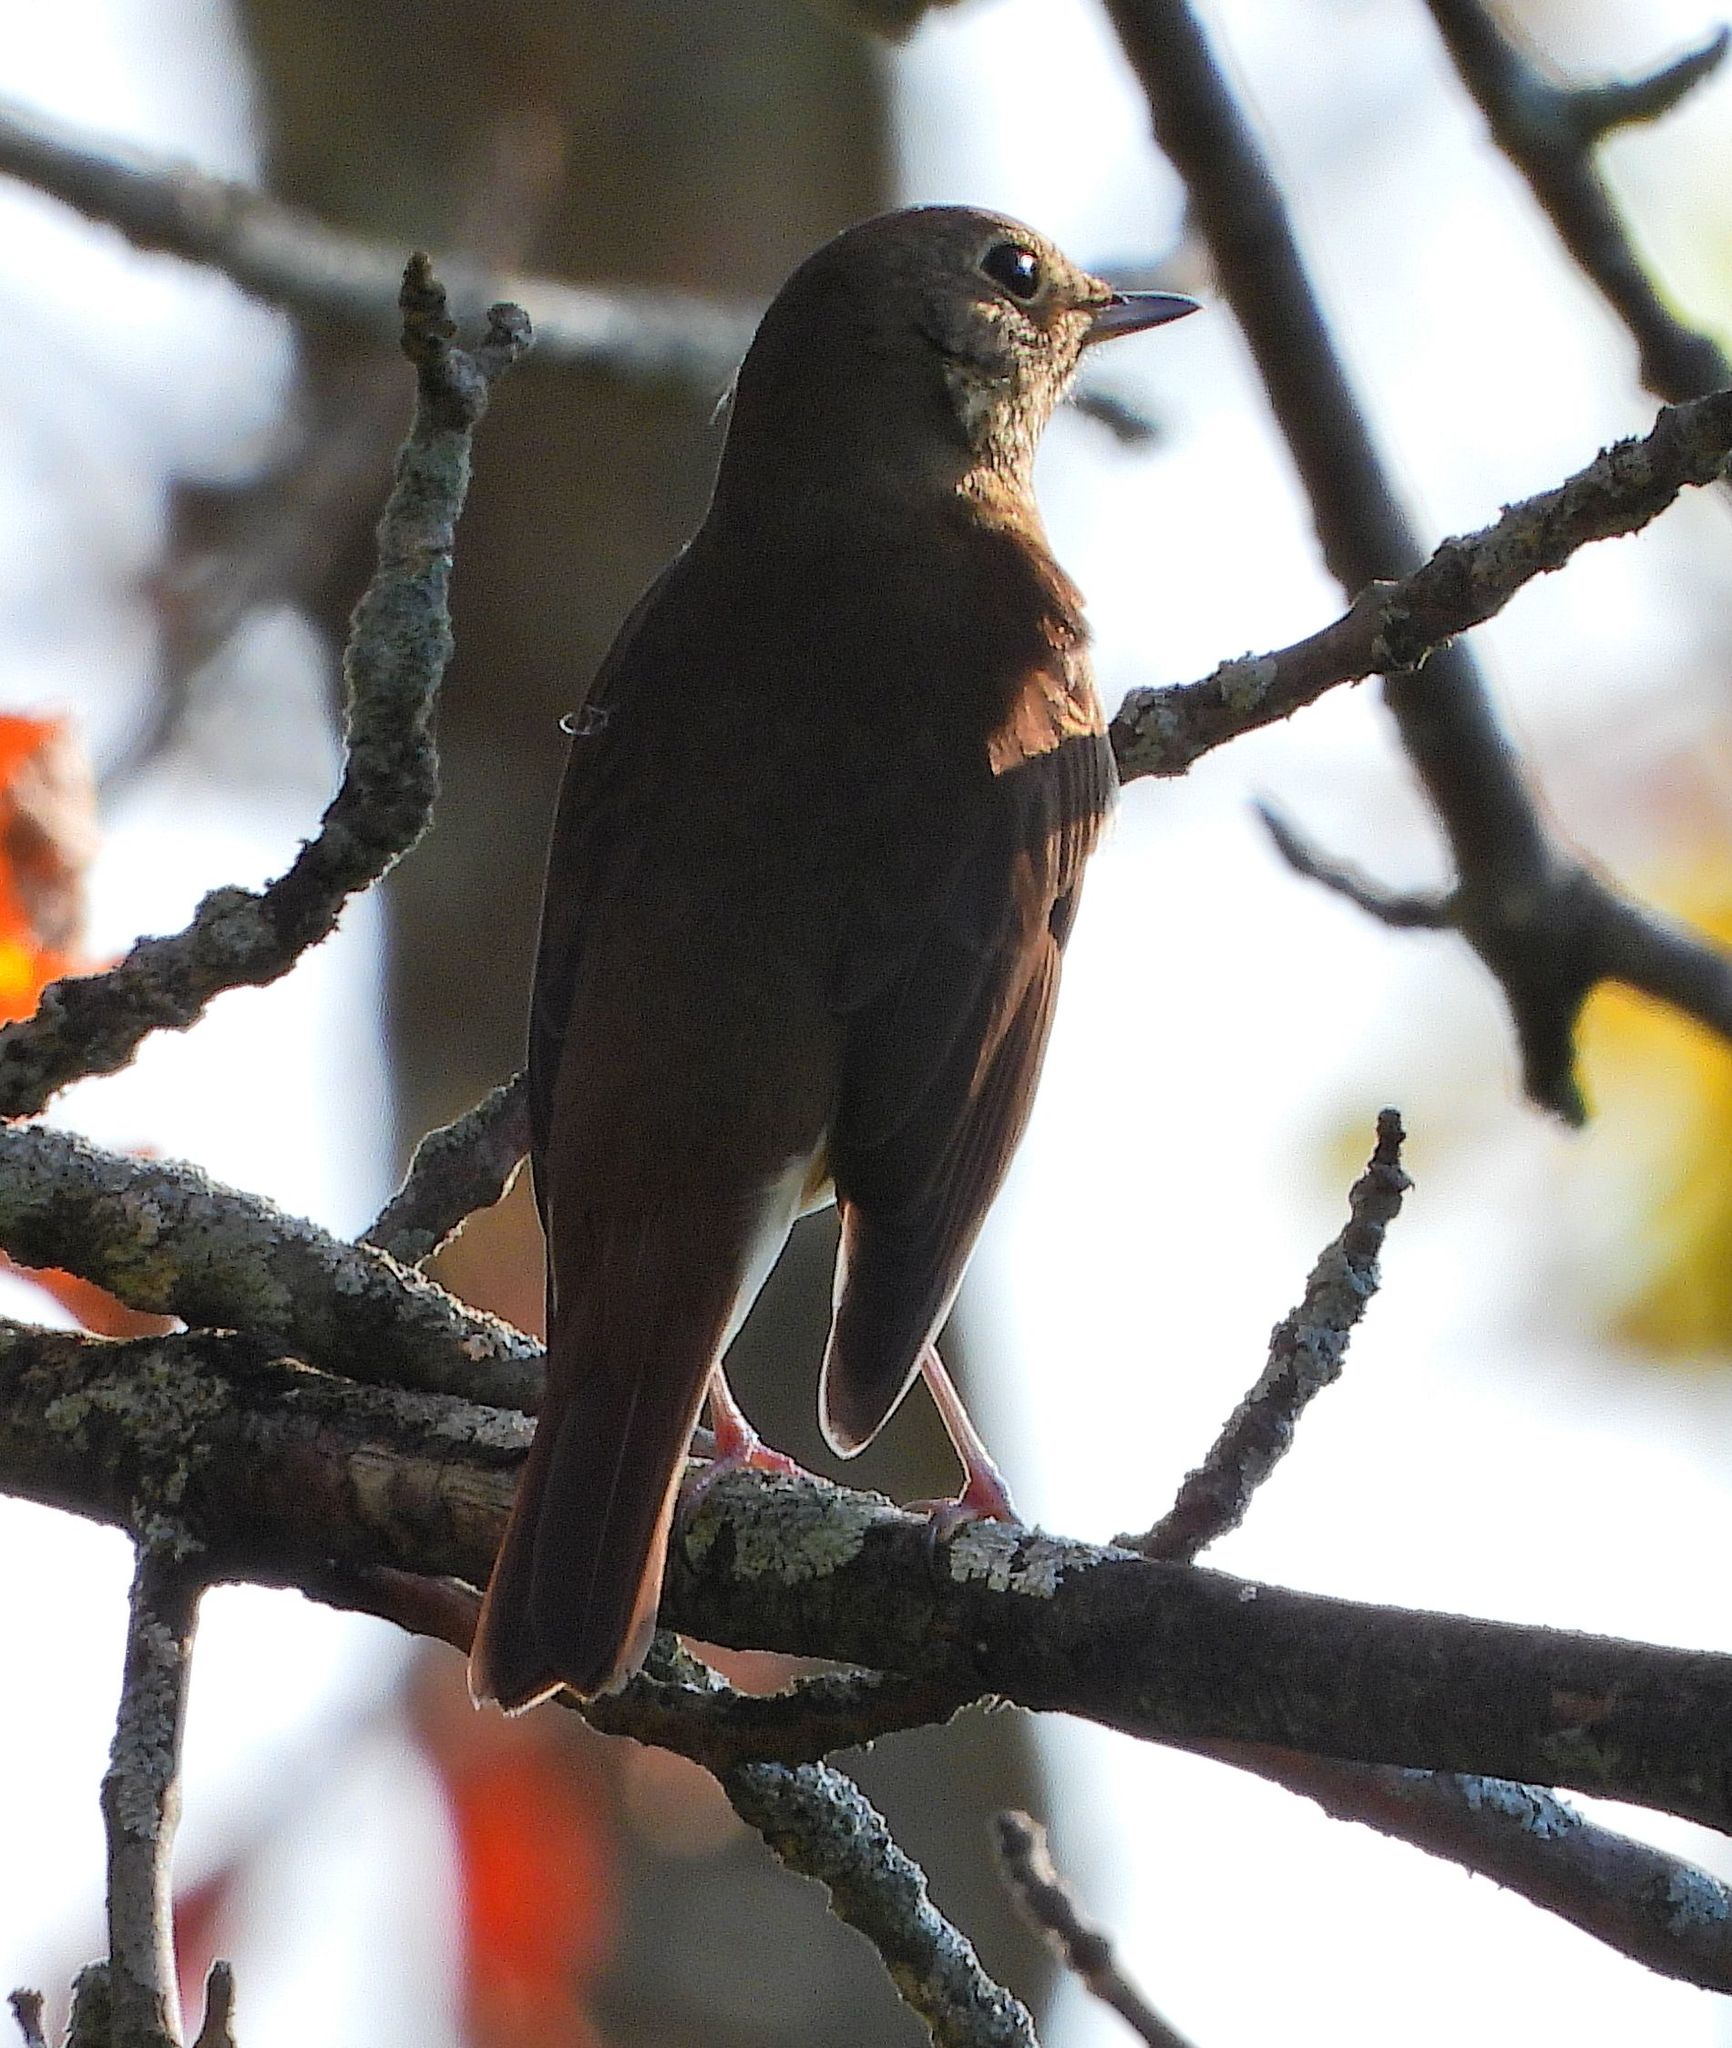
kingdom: Animalia
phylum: Chordata
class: Aves
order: Passeriformes
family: Turdidae
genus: Catharus
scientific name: Catharus guttatus
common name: Hermit thrush
